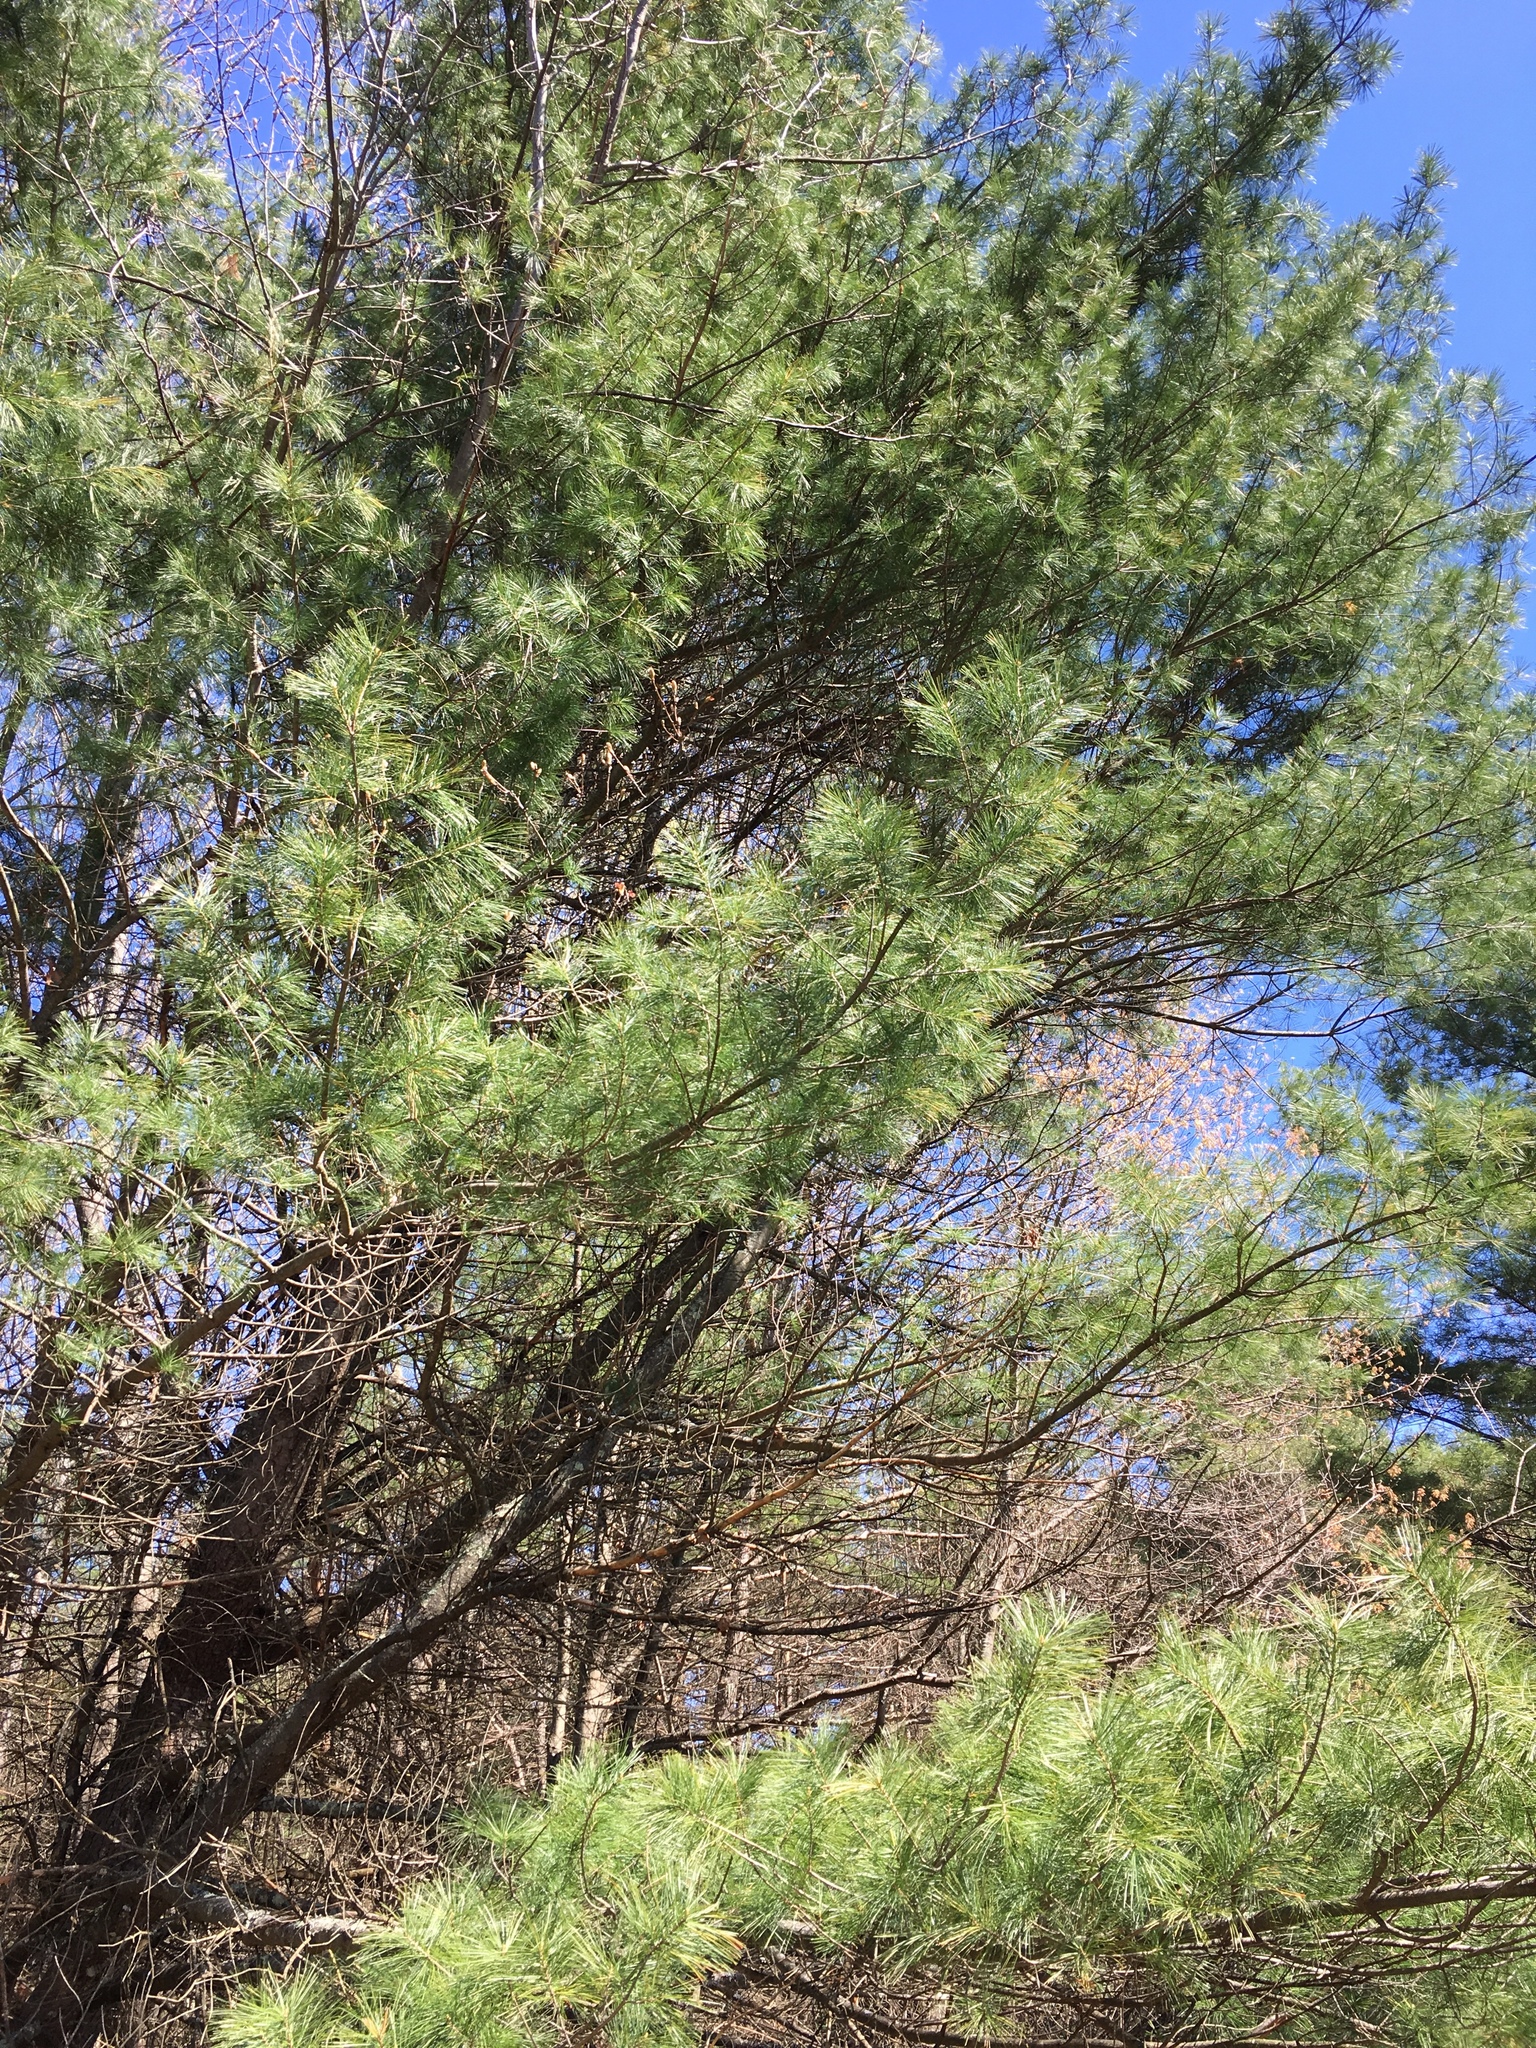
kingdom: Plantae
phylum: Tracheophyta
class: Pinopsida
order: Pinales
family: Pinaceae
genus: Pinus
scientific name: Pinus strobus
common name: Weymouth pine
